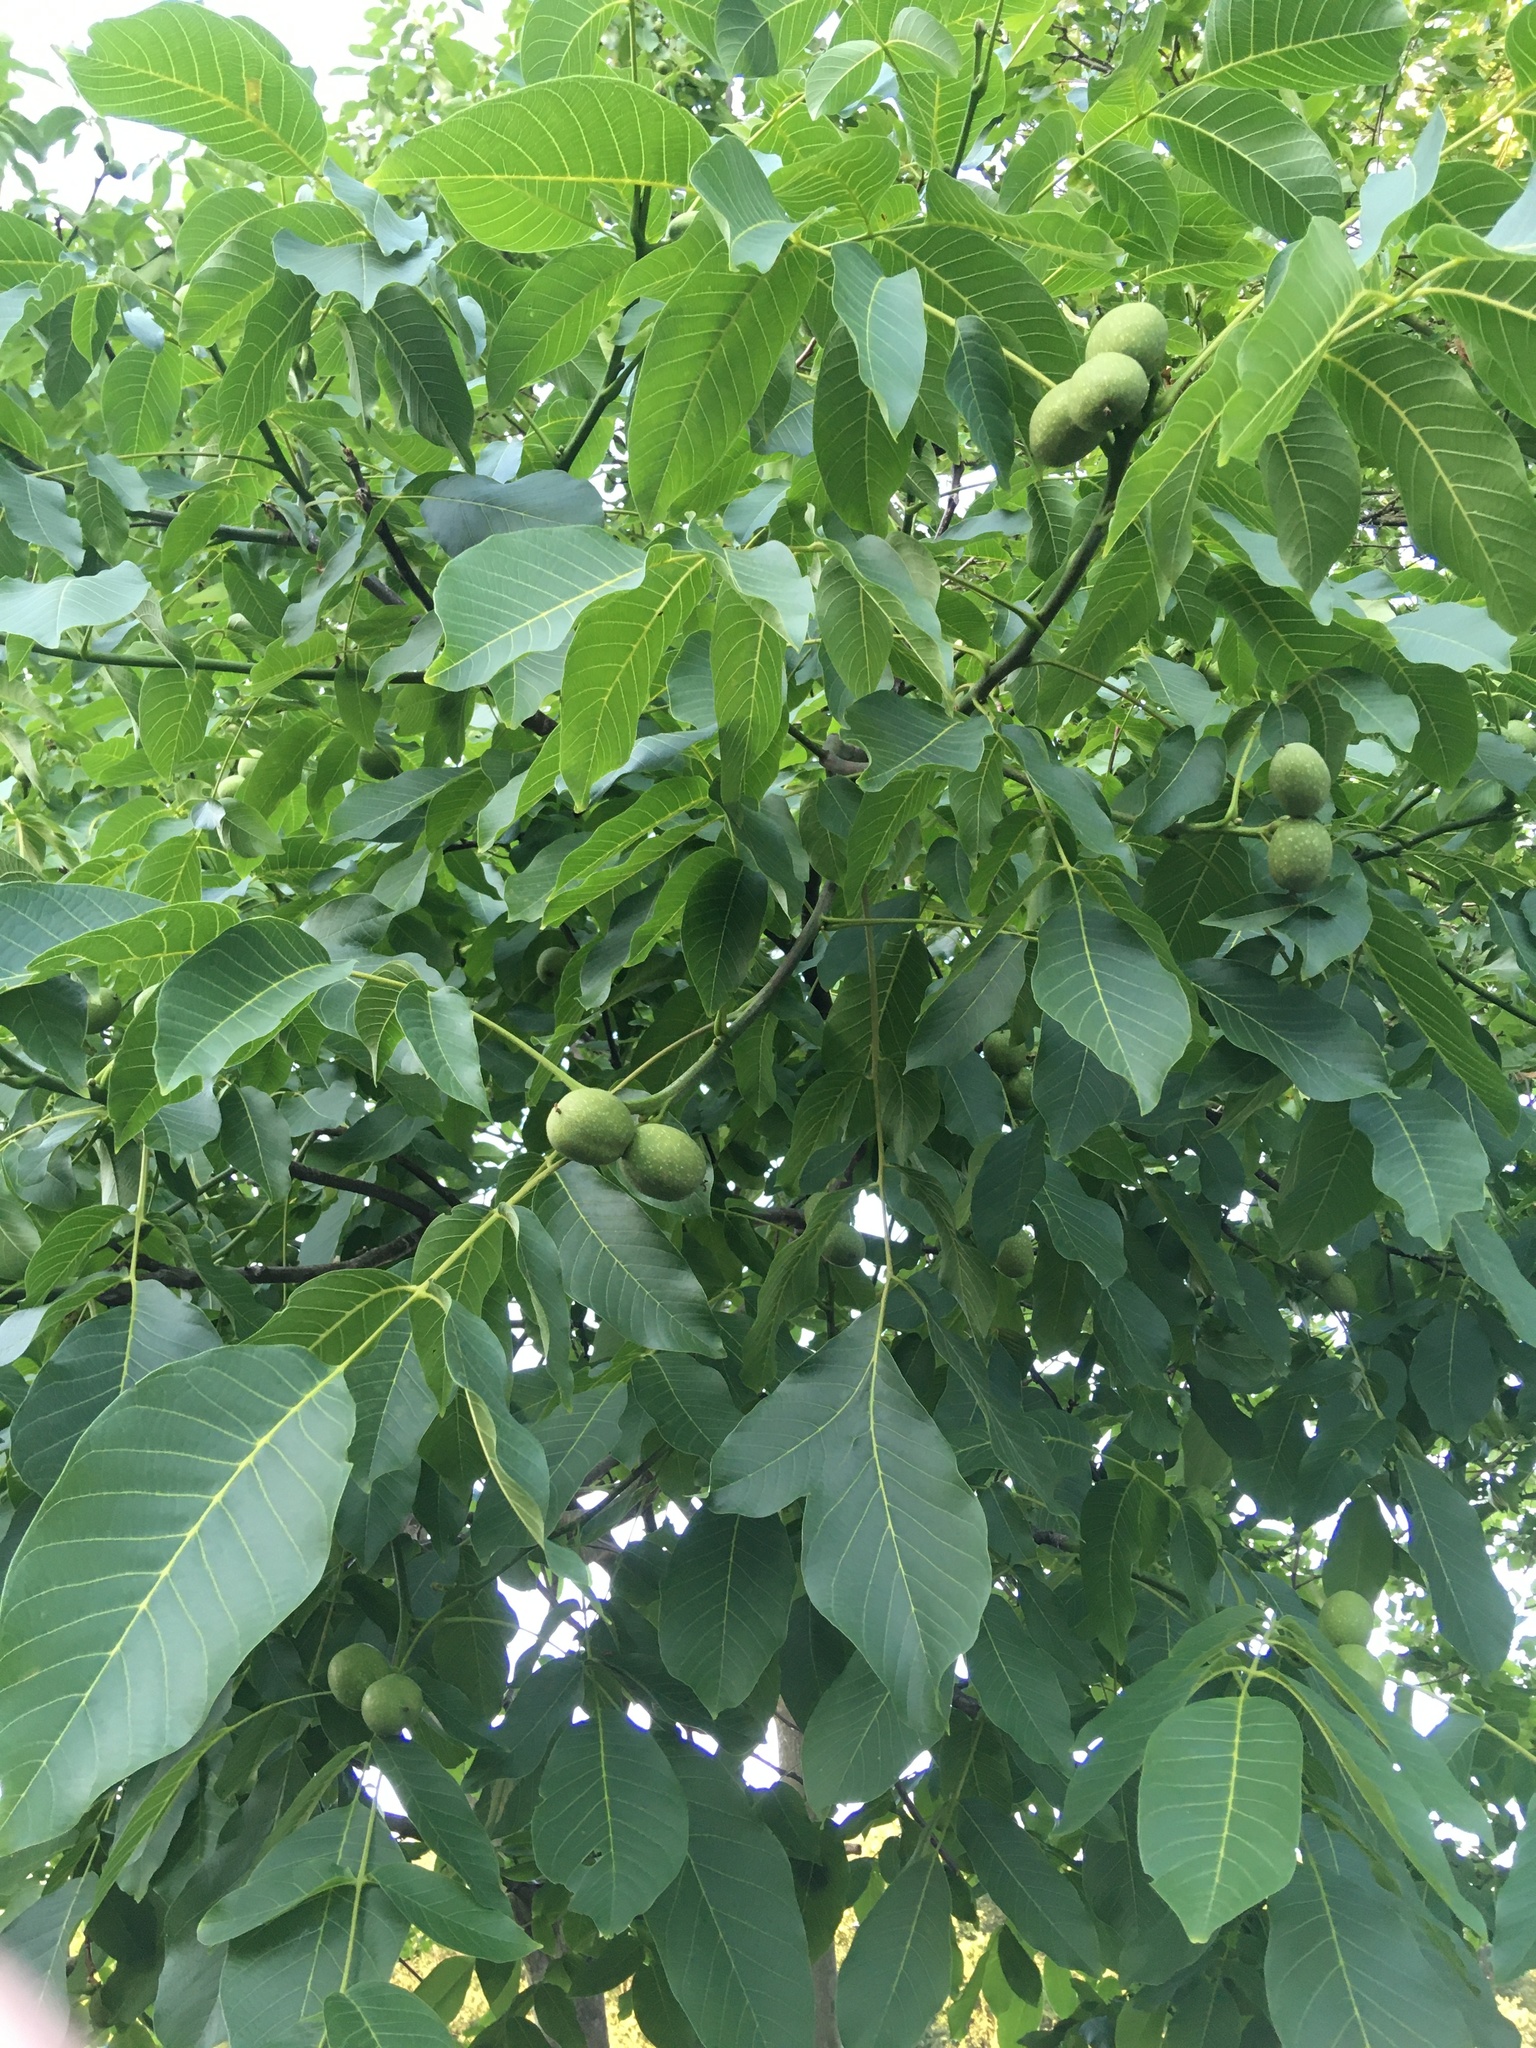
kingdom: Plantae
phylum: Tracheophyta
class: Magnoliopsida
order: Fagales
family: Juglandaceae
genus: Juglans
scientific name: Juglans regia
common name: Walnut
